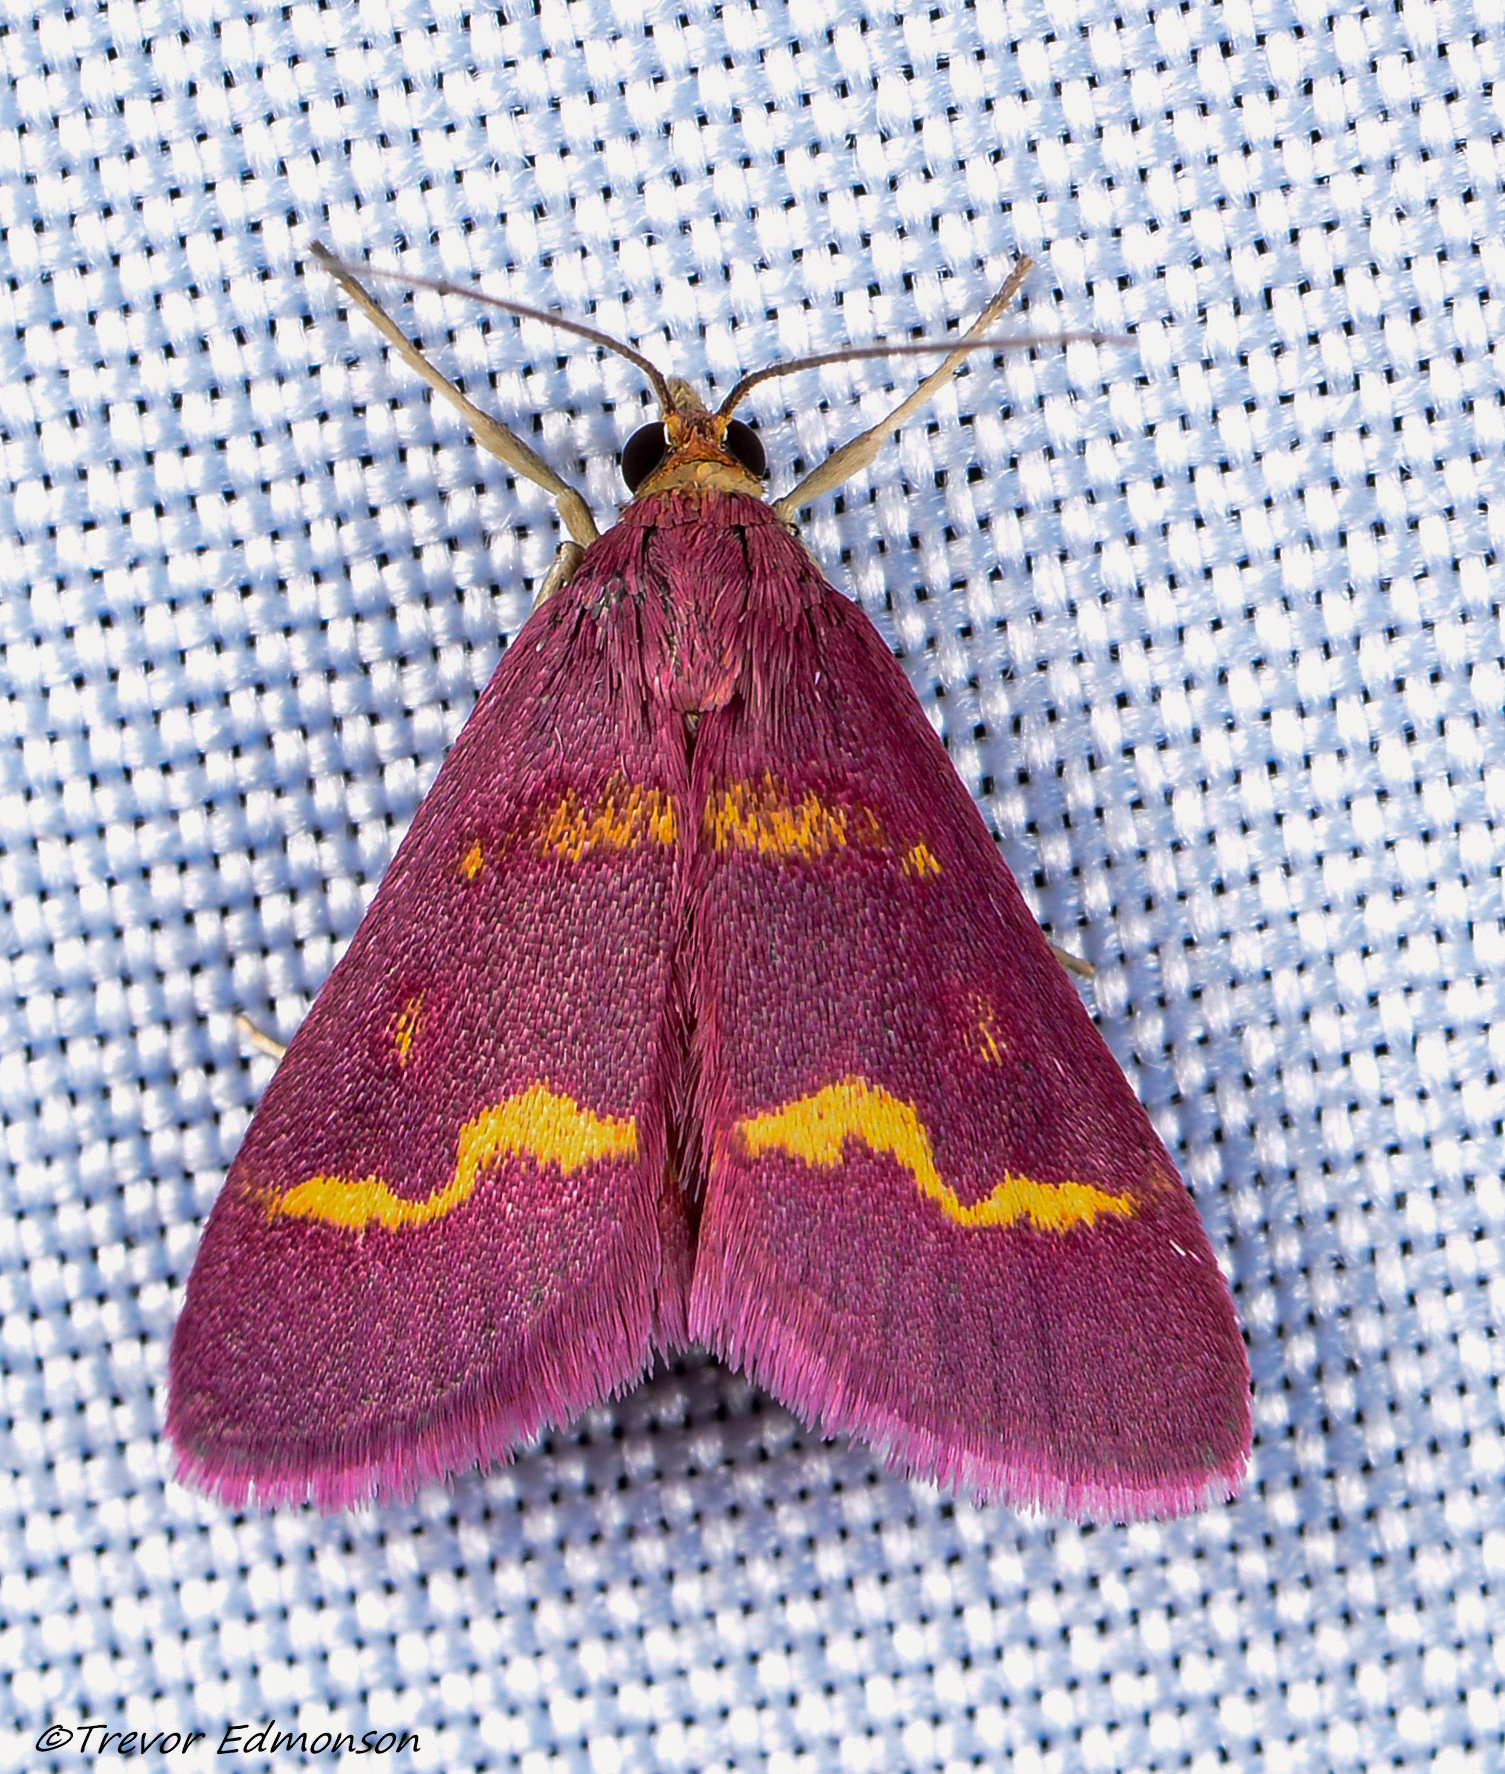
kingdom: Animalia
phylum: Arthropoda
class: Insecta
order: Lepidoptera
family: Crambidae
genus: Pyrausta
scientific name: Pyrausta tyralis
